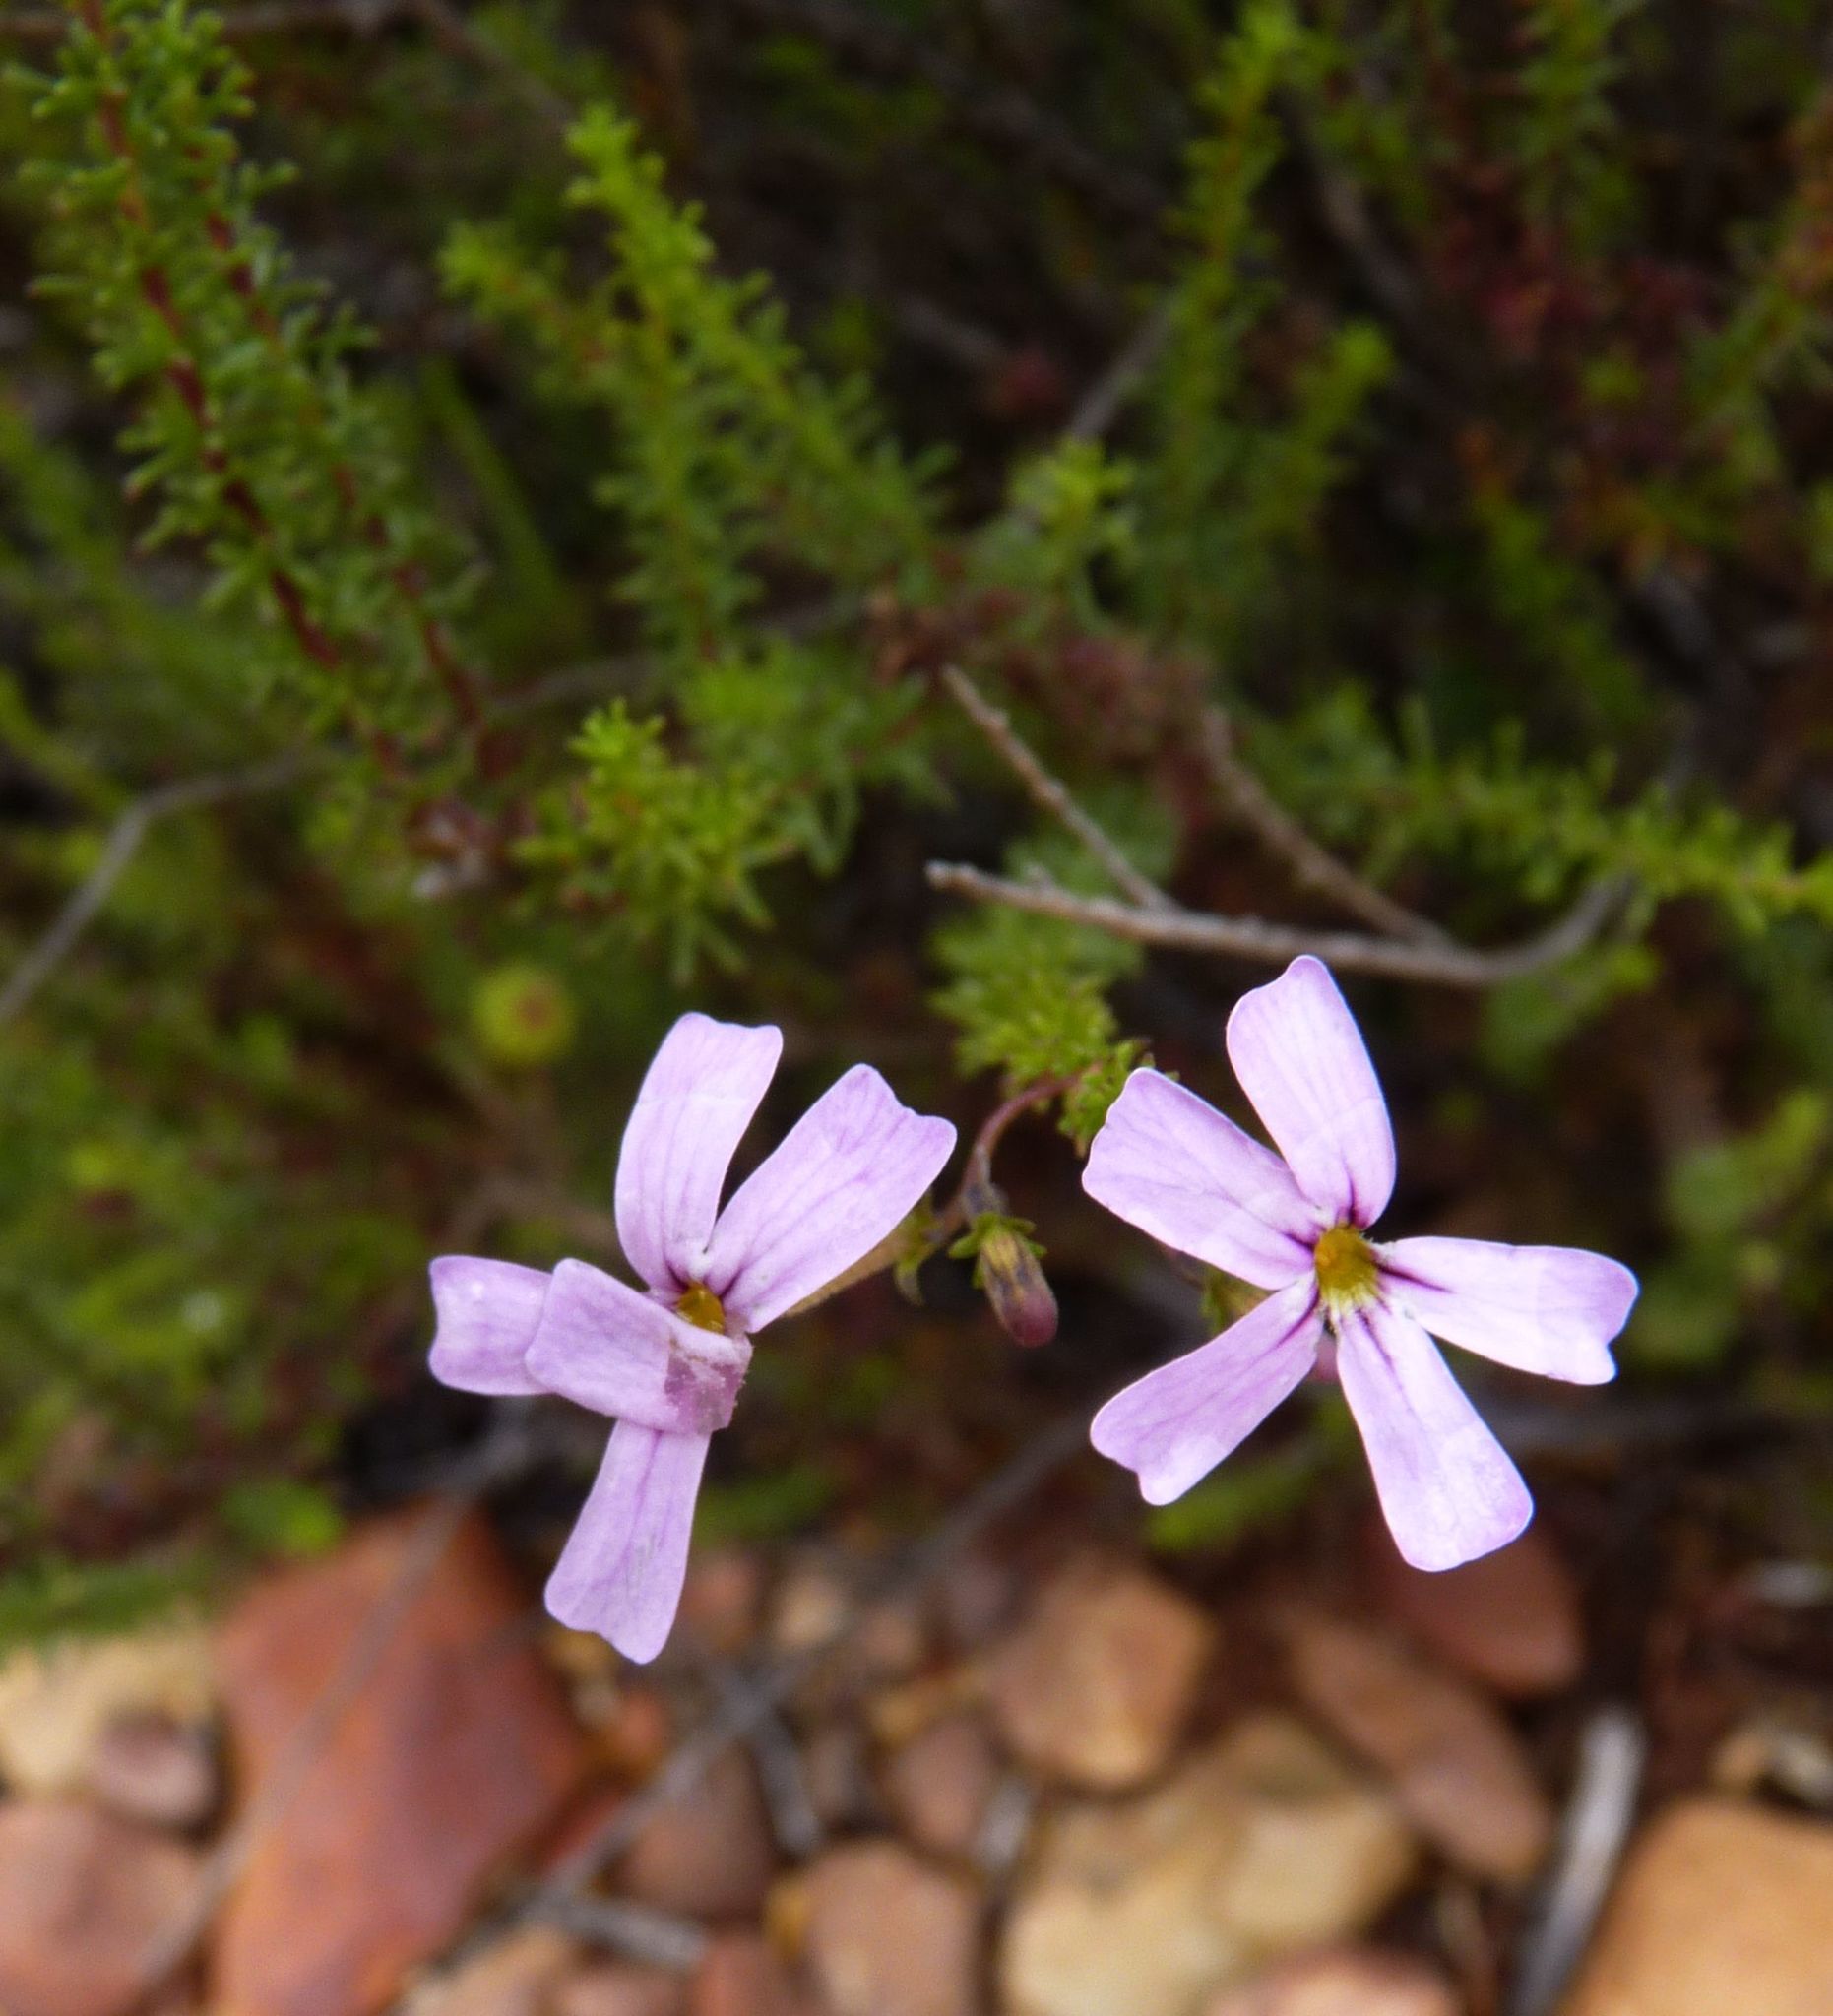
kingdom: Plantae
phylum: Tracheophyta
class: Magnoliopsida
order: Lamiales
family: Scrophulariaceae
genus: Jamesbrittenia
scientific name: Jamesbrittenia tortuosa
